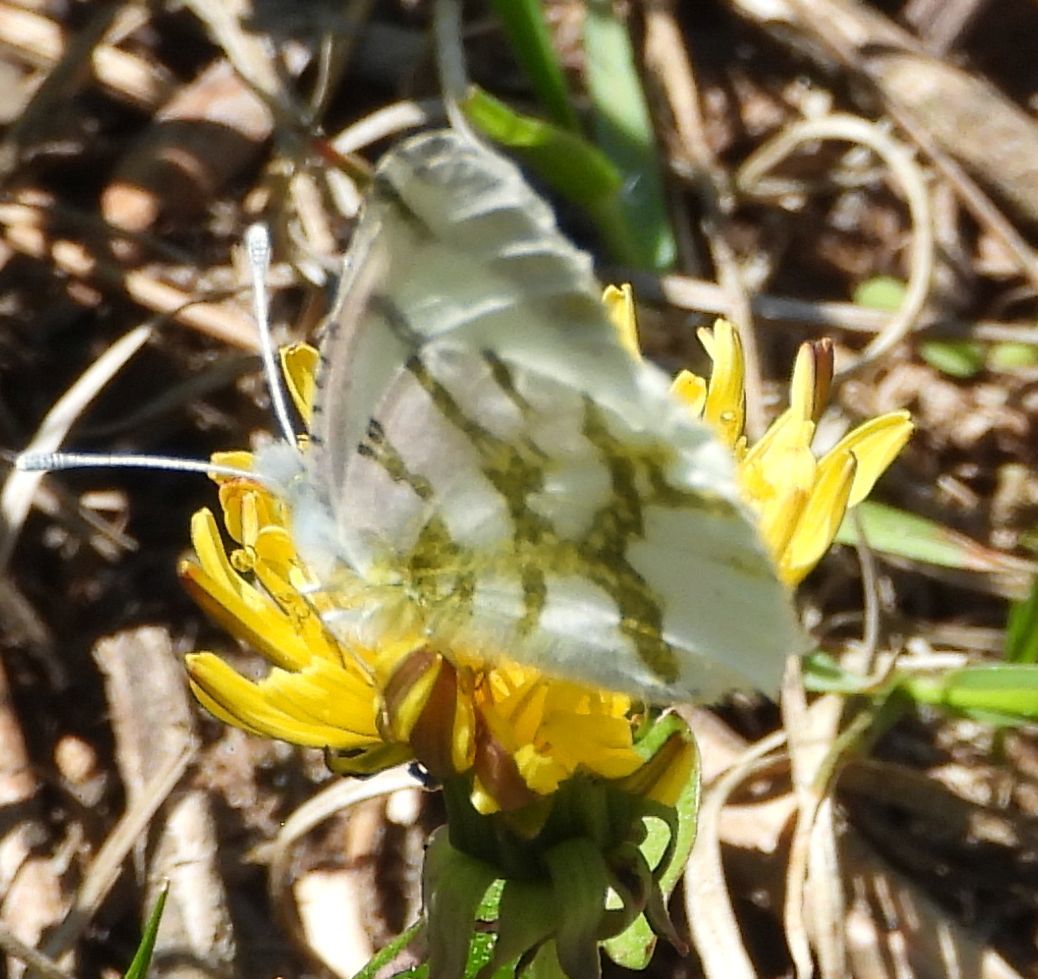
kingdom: Animalia
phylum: Arthropoda
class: Insecta
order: Lepidoptera
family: Pieridae
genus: Euchloe
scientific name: Euchloe olympia
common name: Olympia
